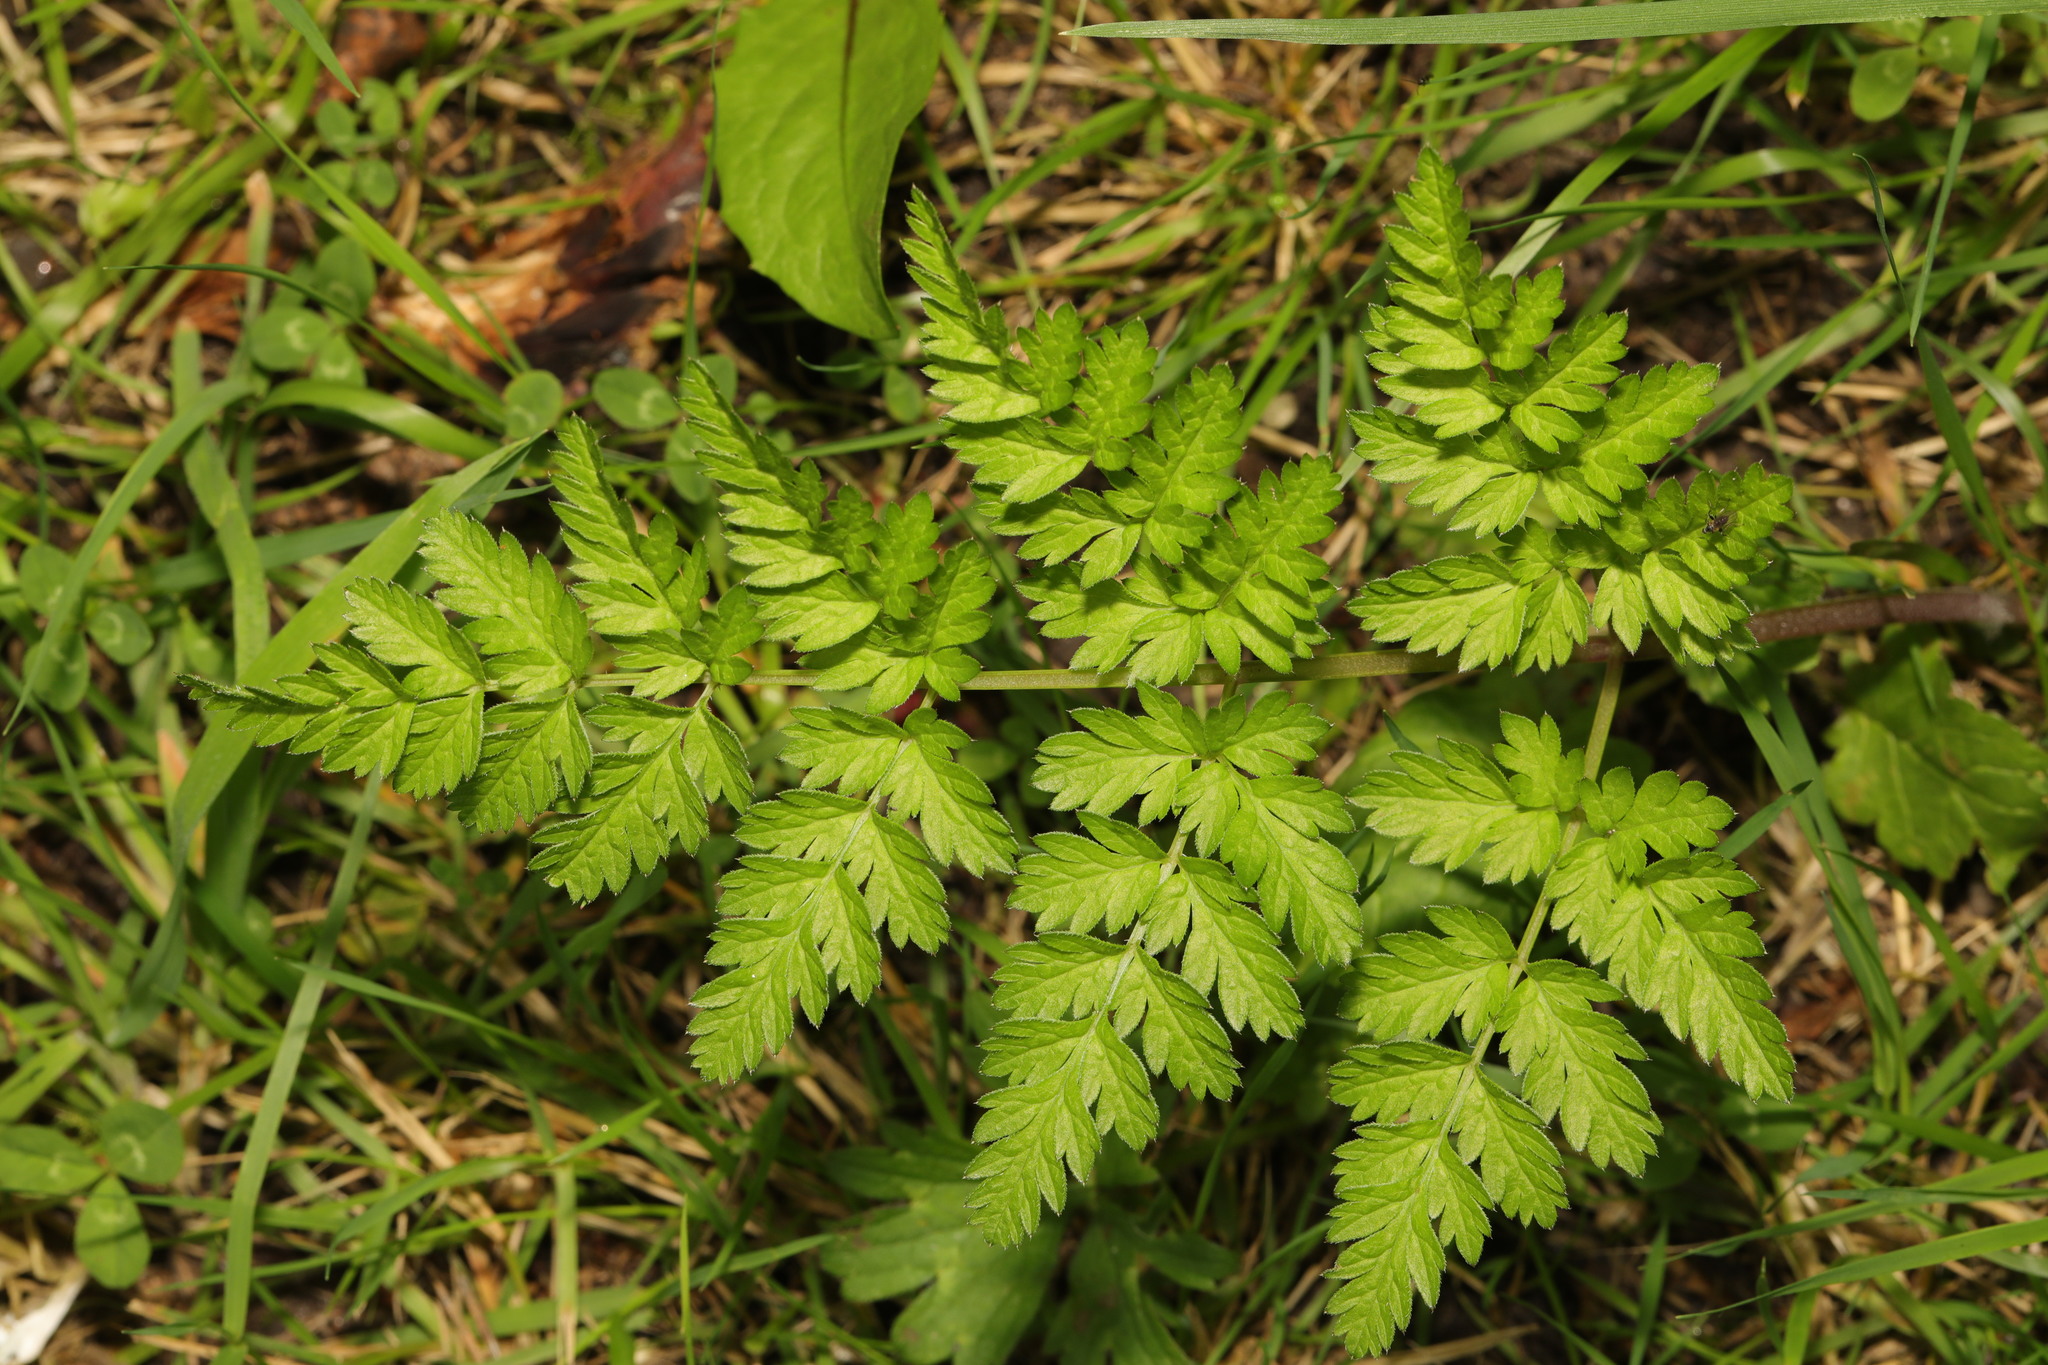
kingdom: Plantae
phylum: Tracheophyta
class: Magnoliopsida
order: Apiales
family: Apiaceae
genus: Anthriscus
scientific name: Anthriscus sylvestris
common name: Cow parsley
